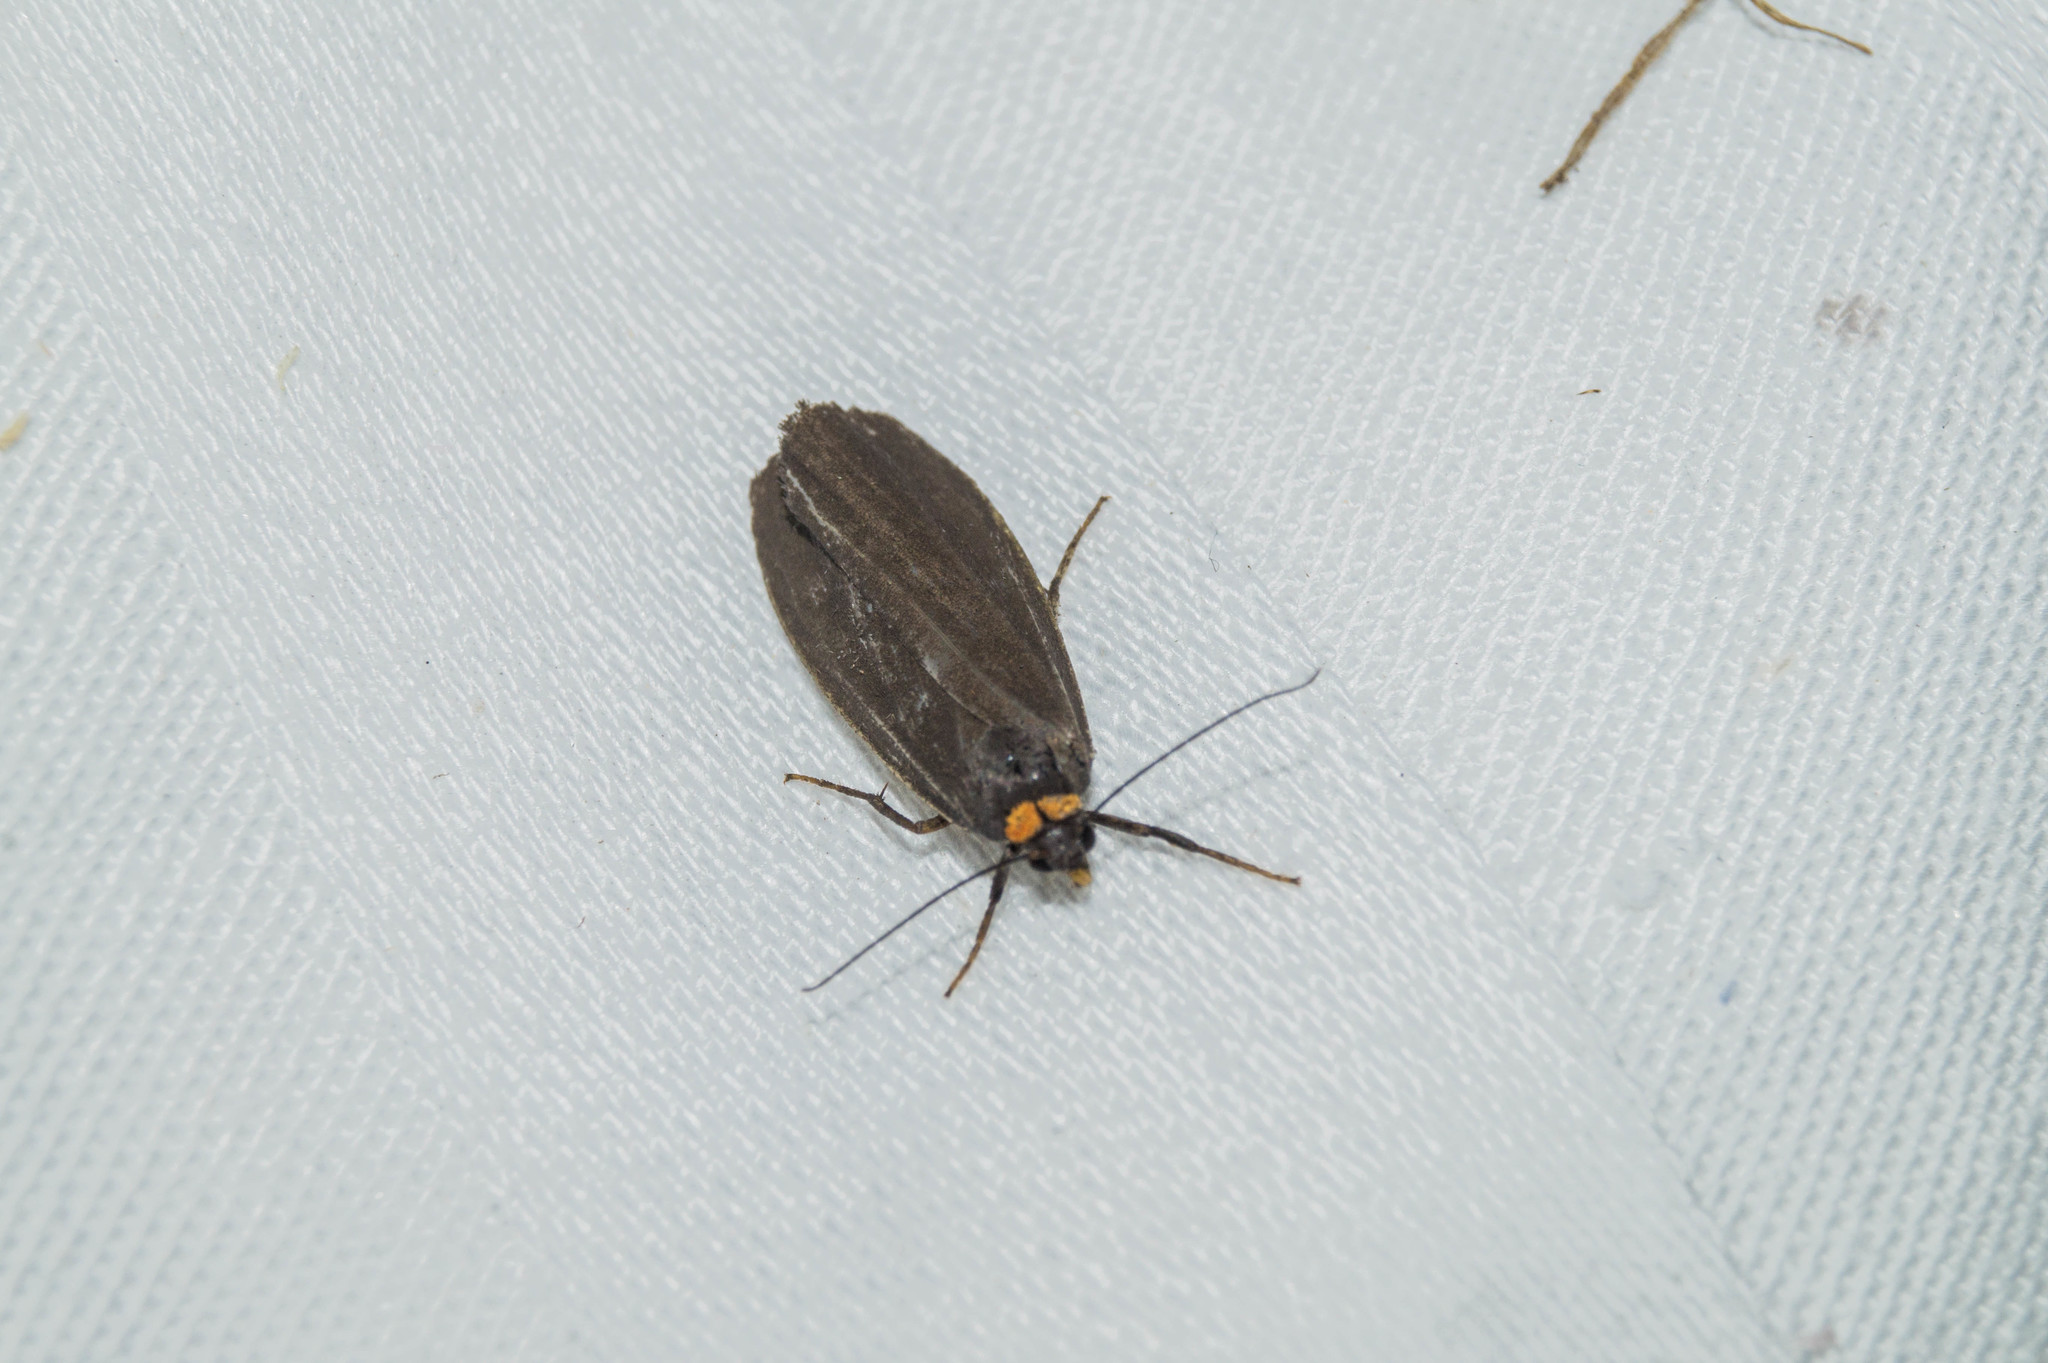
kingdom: Animalia
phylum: Arthropoda
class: Insecta
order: Lepidoptera
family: Erebidae
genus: Atolmis
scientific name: Atolmis rubricollis
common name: Red-necked footman
